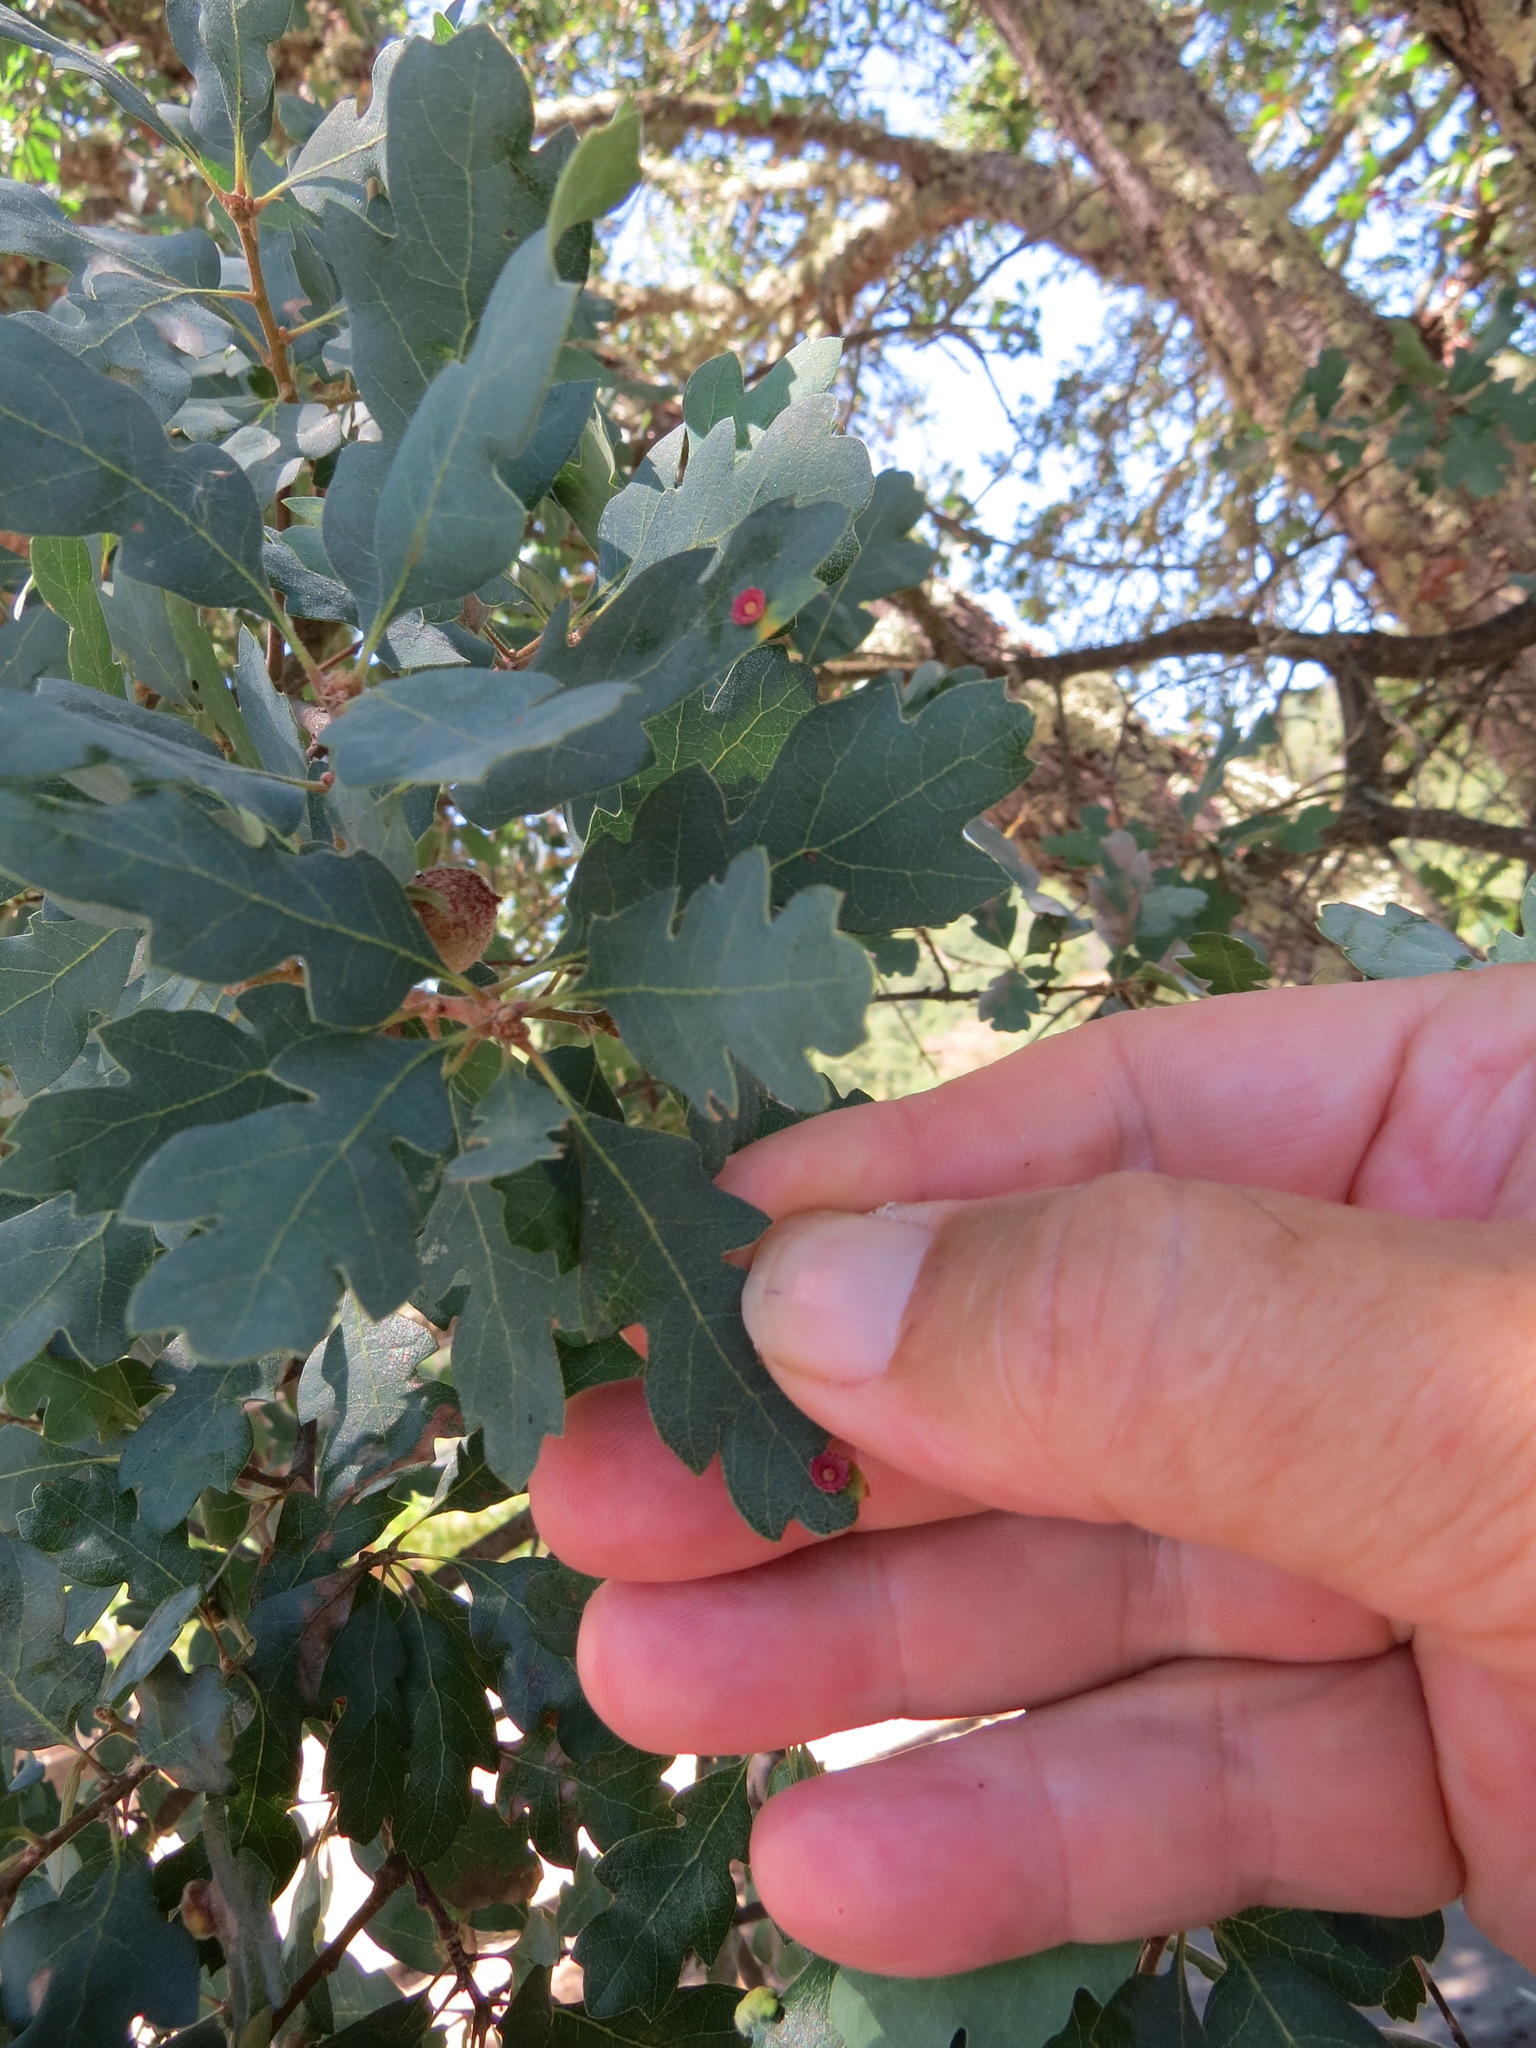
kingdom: Animalia
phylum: Arthropoda
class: Insecta
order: Hymenoptera
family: Cynipidae
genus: Andricus
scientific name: Andricus
